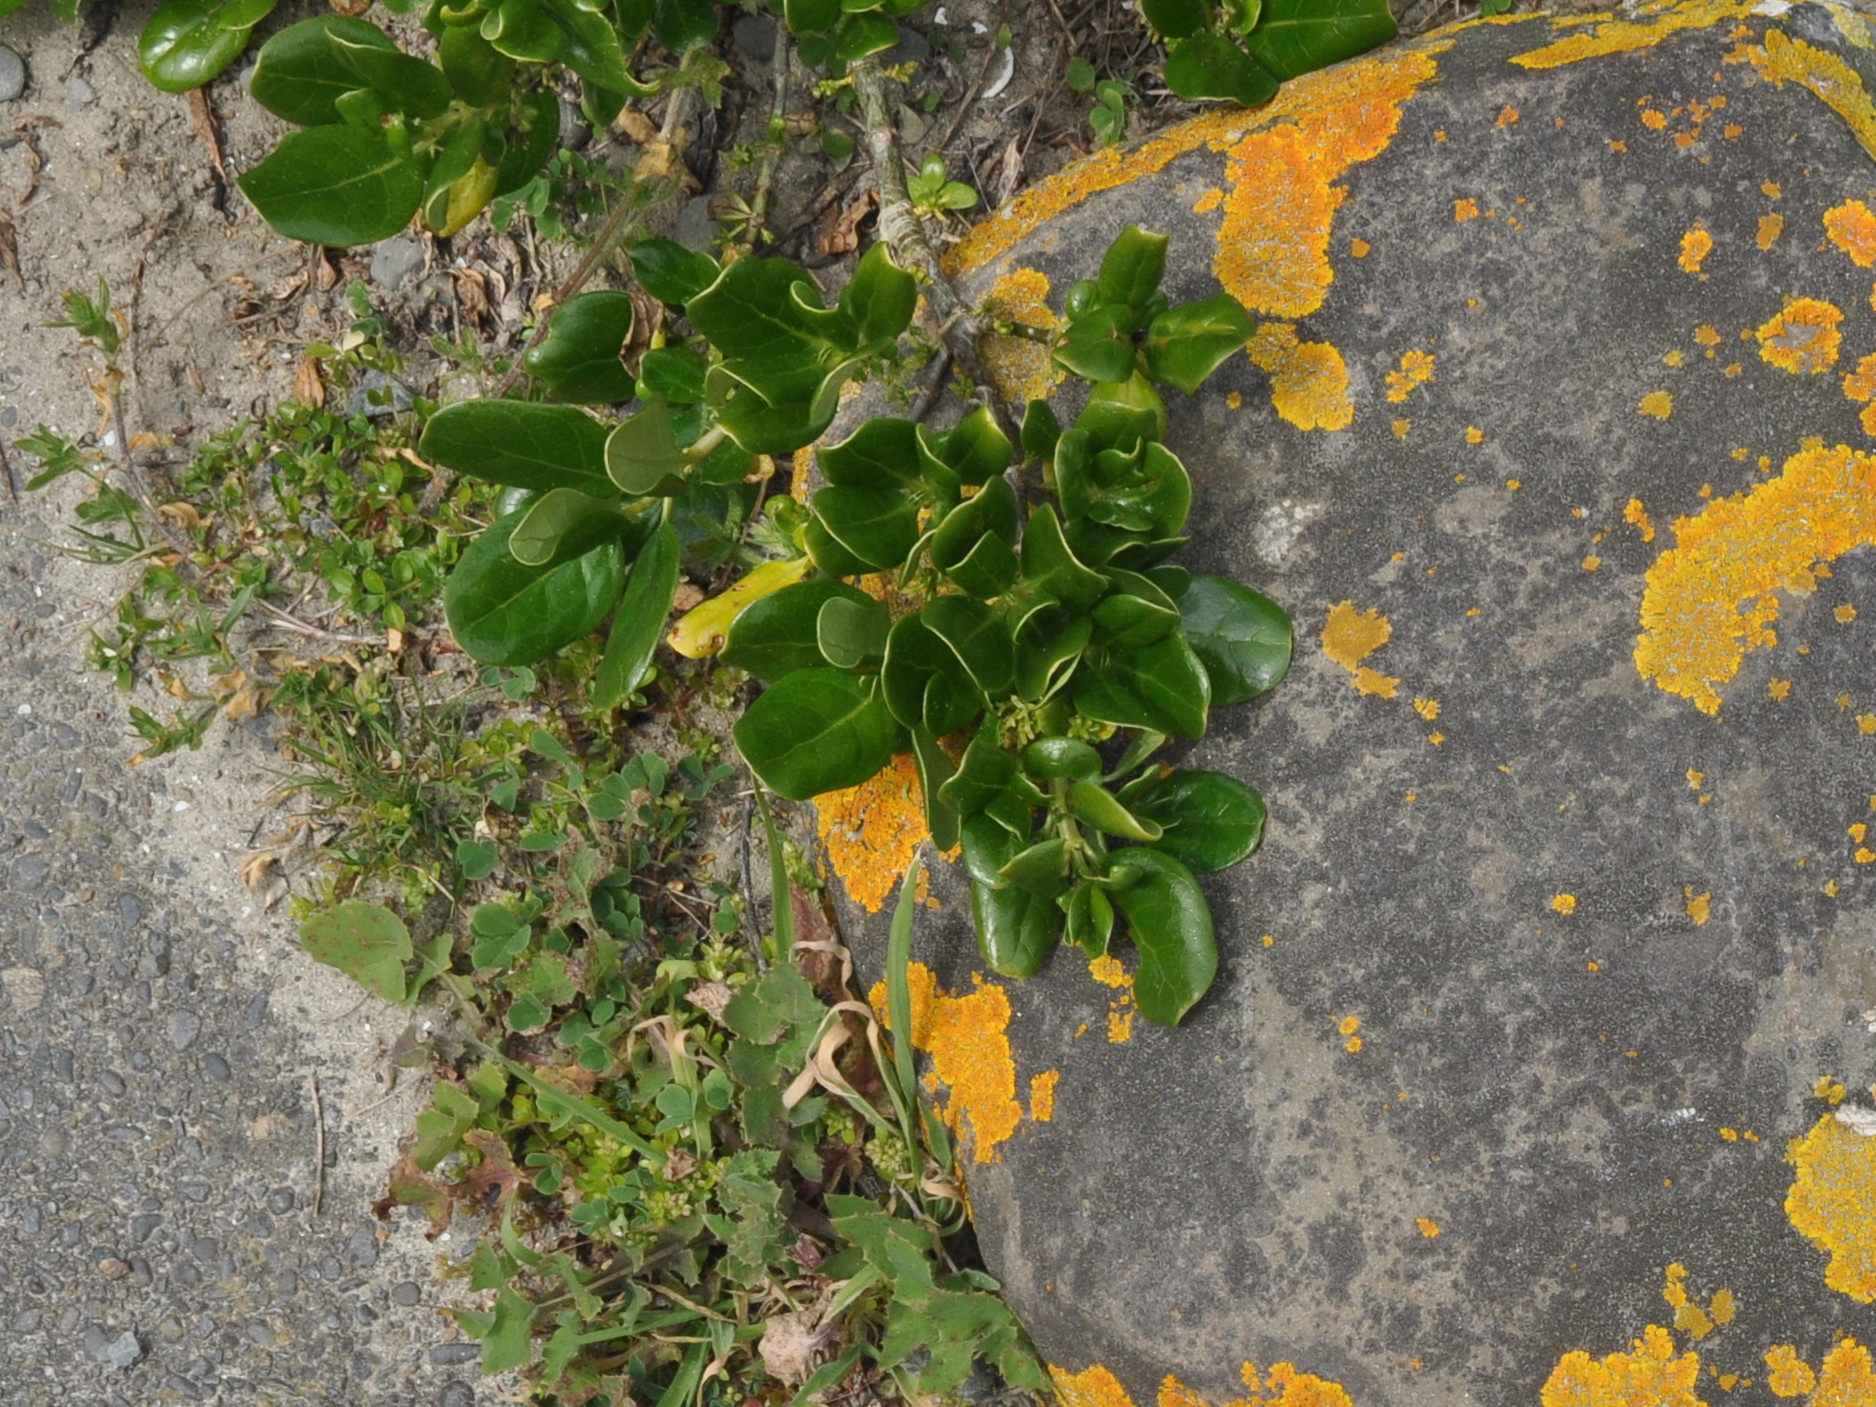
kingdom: Plantae
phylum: Tracheophyta
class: Magnoliopsida
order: Gentianales
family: Rubiaceae
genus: Coprosma
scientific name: Coprosma repens
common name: Tree bedstraw
